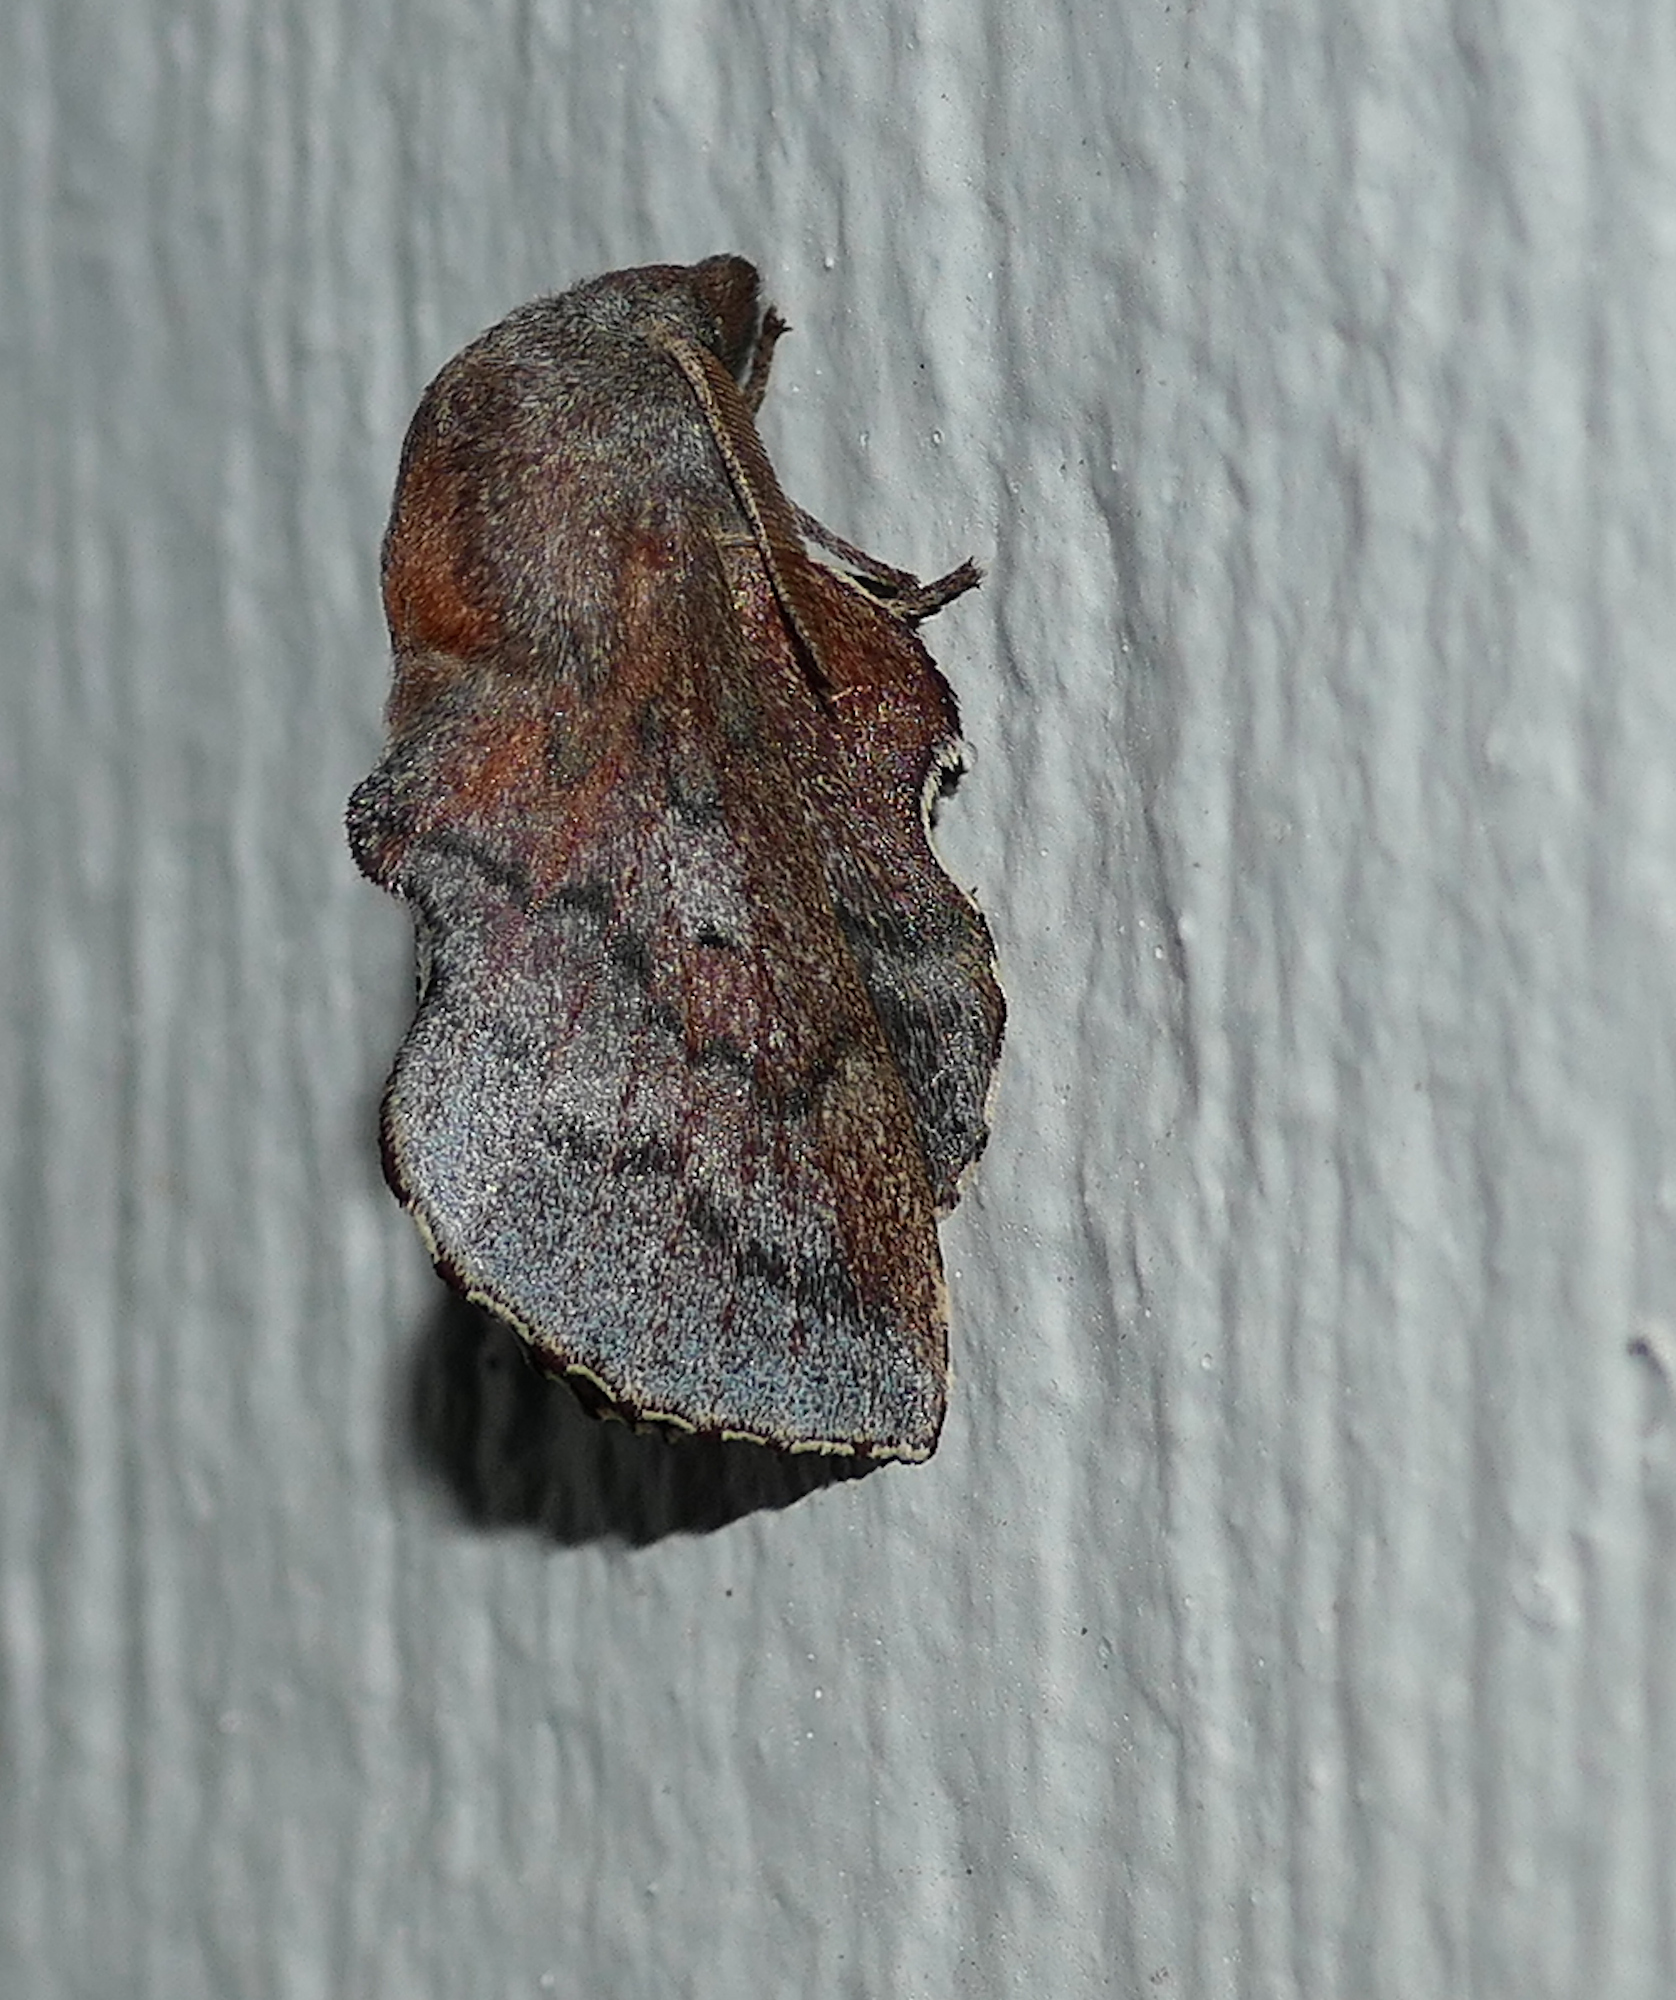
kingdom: Animalia
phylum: Arthropoda
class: Insecta
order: Lepidoptera
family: Lasiocampidae
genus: Phyllodesma
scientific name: Phyllodesma americana
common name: American lappet moth
